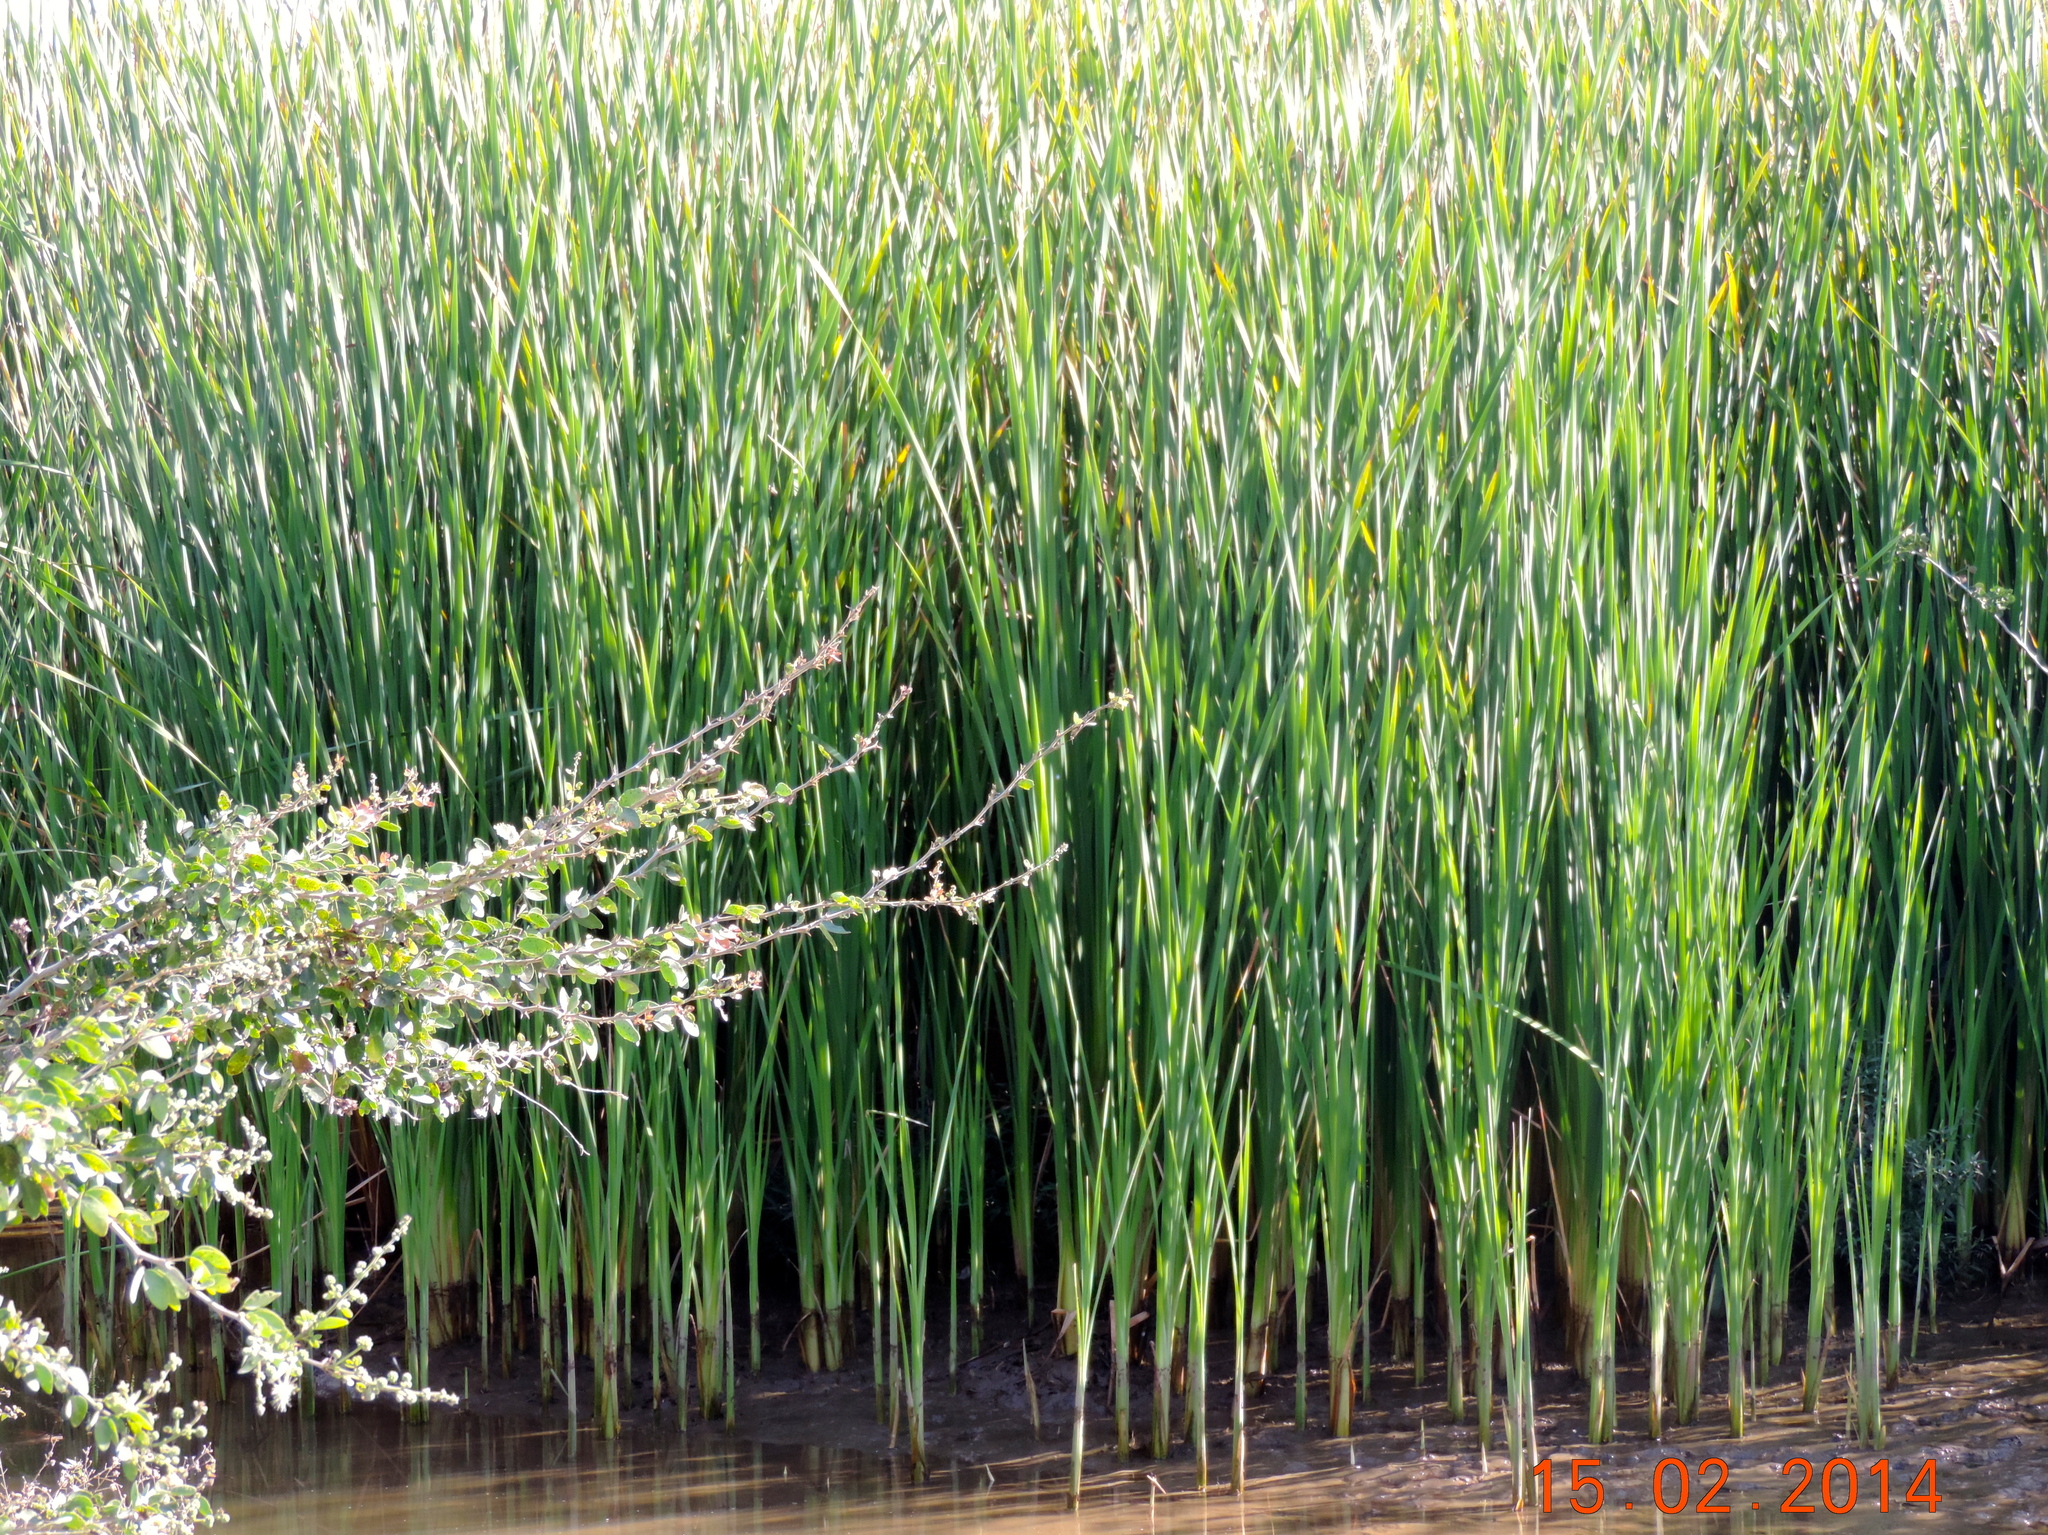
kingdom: Plantae
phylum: Tracheophyta
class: Liliopsida
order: Poales
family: Typhaceae
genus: Typha
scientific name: Typha latifolia
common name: Broadleaf cattail
